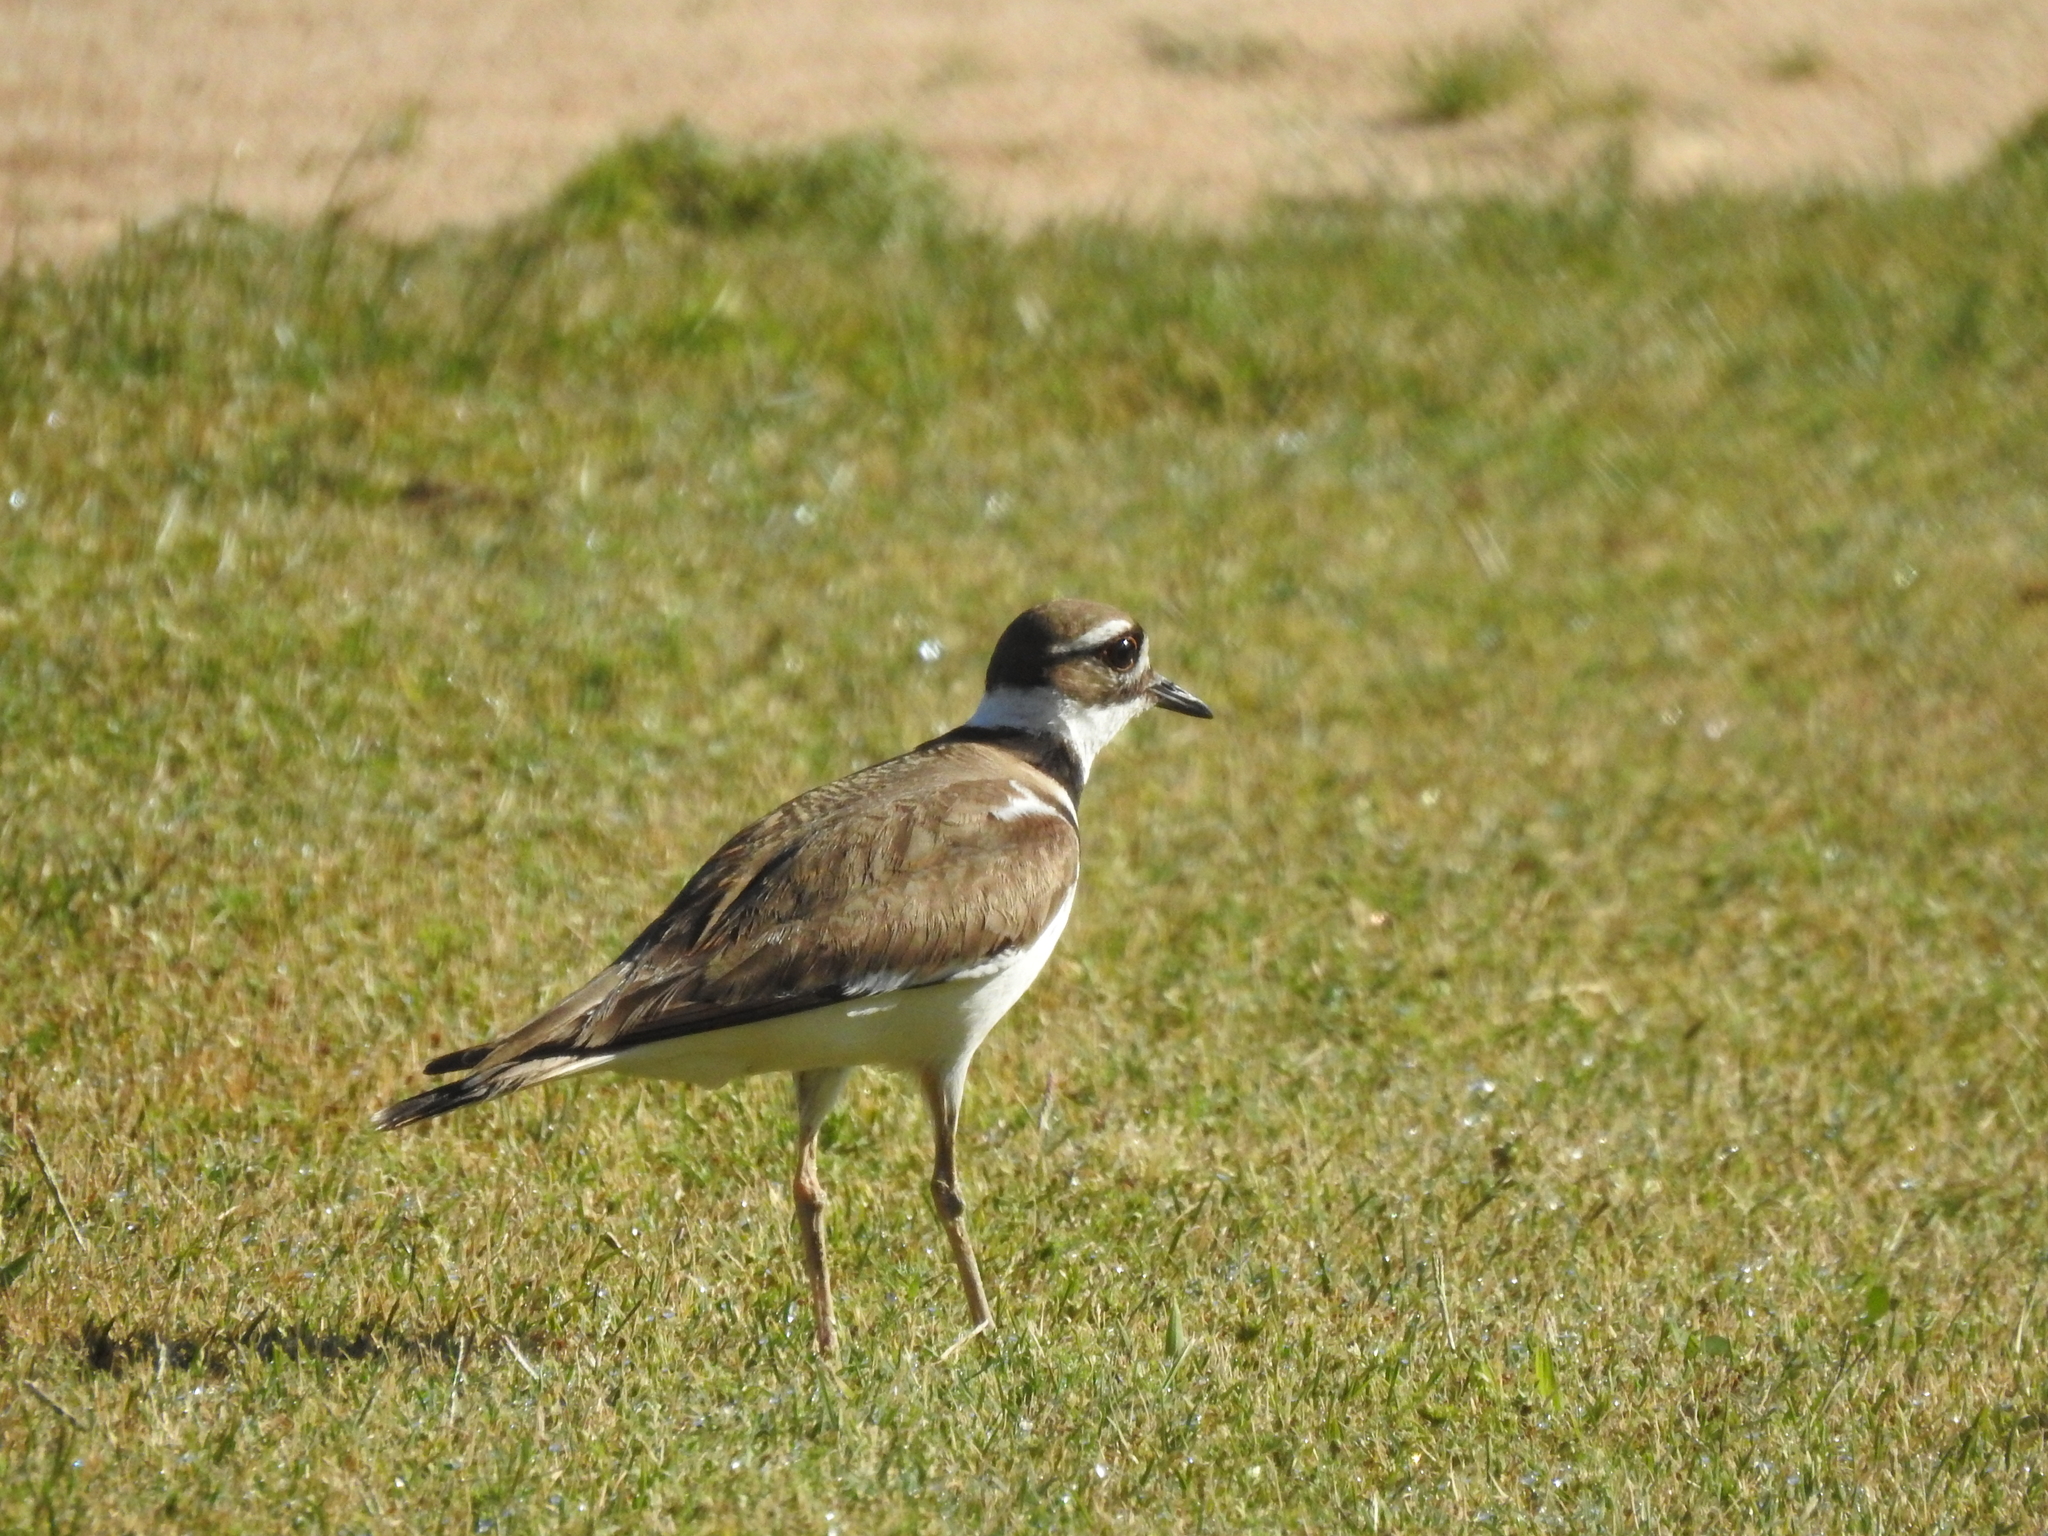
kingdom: Animalia
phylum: Chordata
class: Aves
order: Charadriiformes
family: Charadriidae
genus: Charadrius
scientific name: Charadrius vociferus
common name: Killdeer
